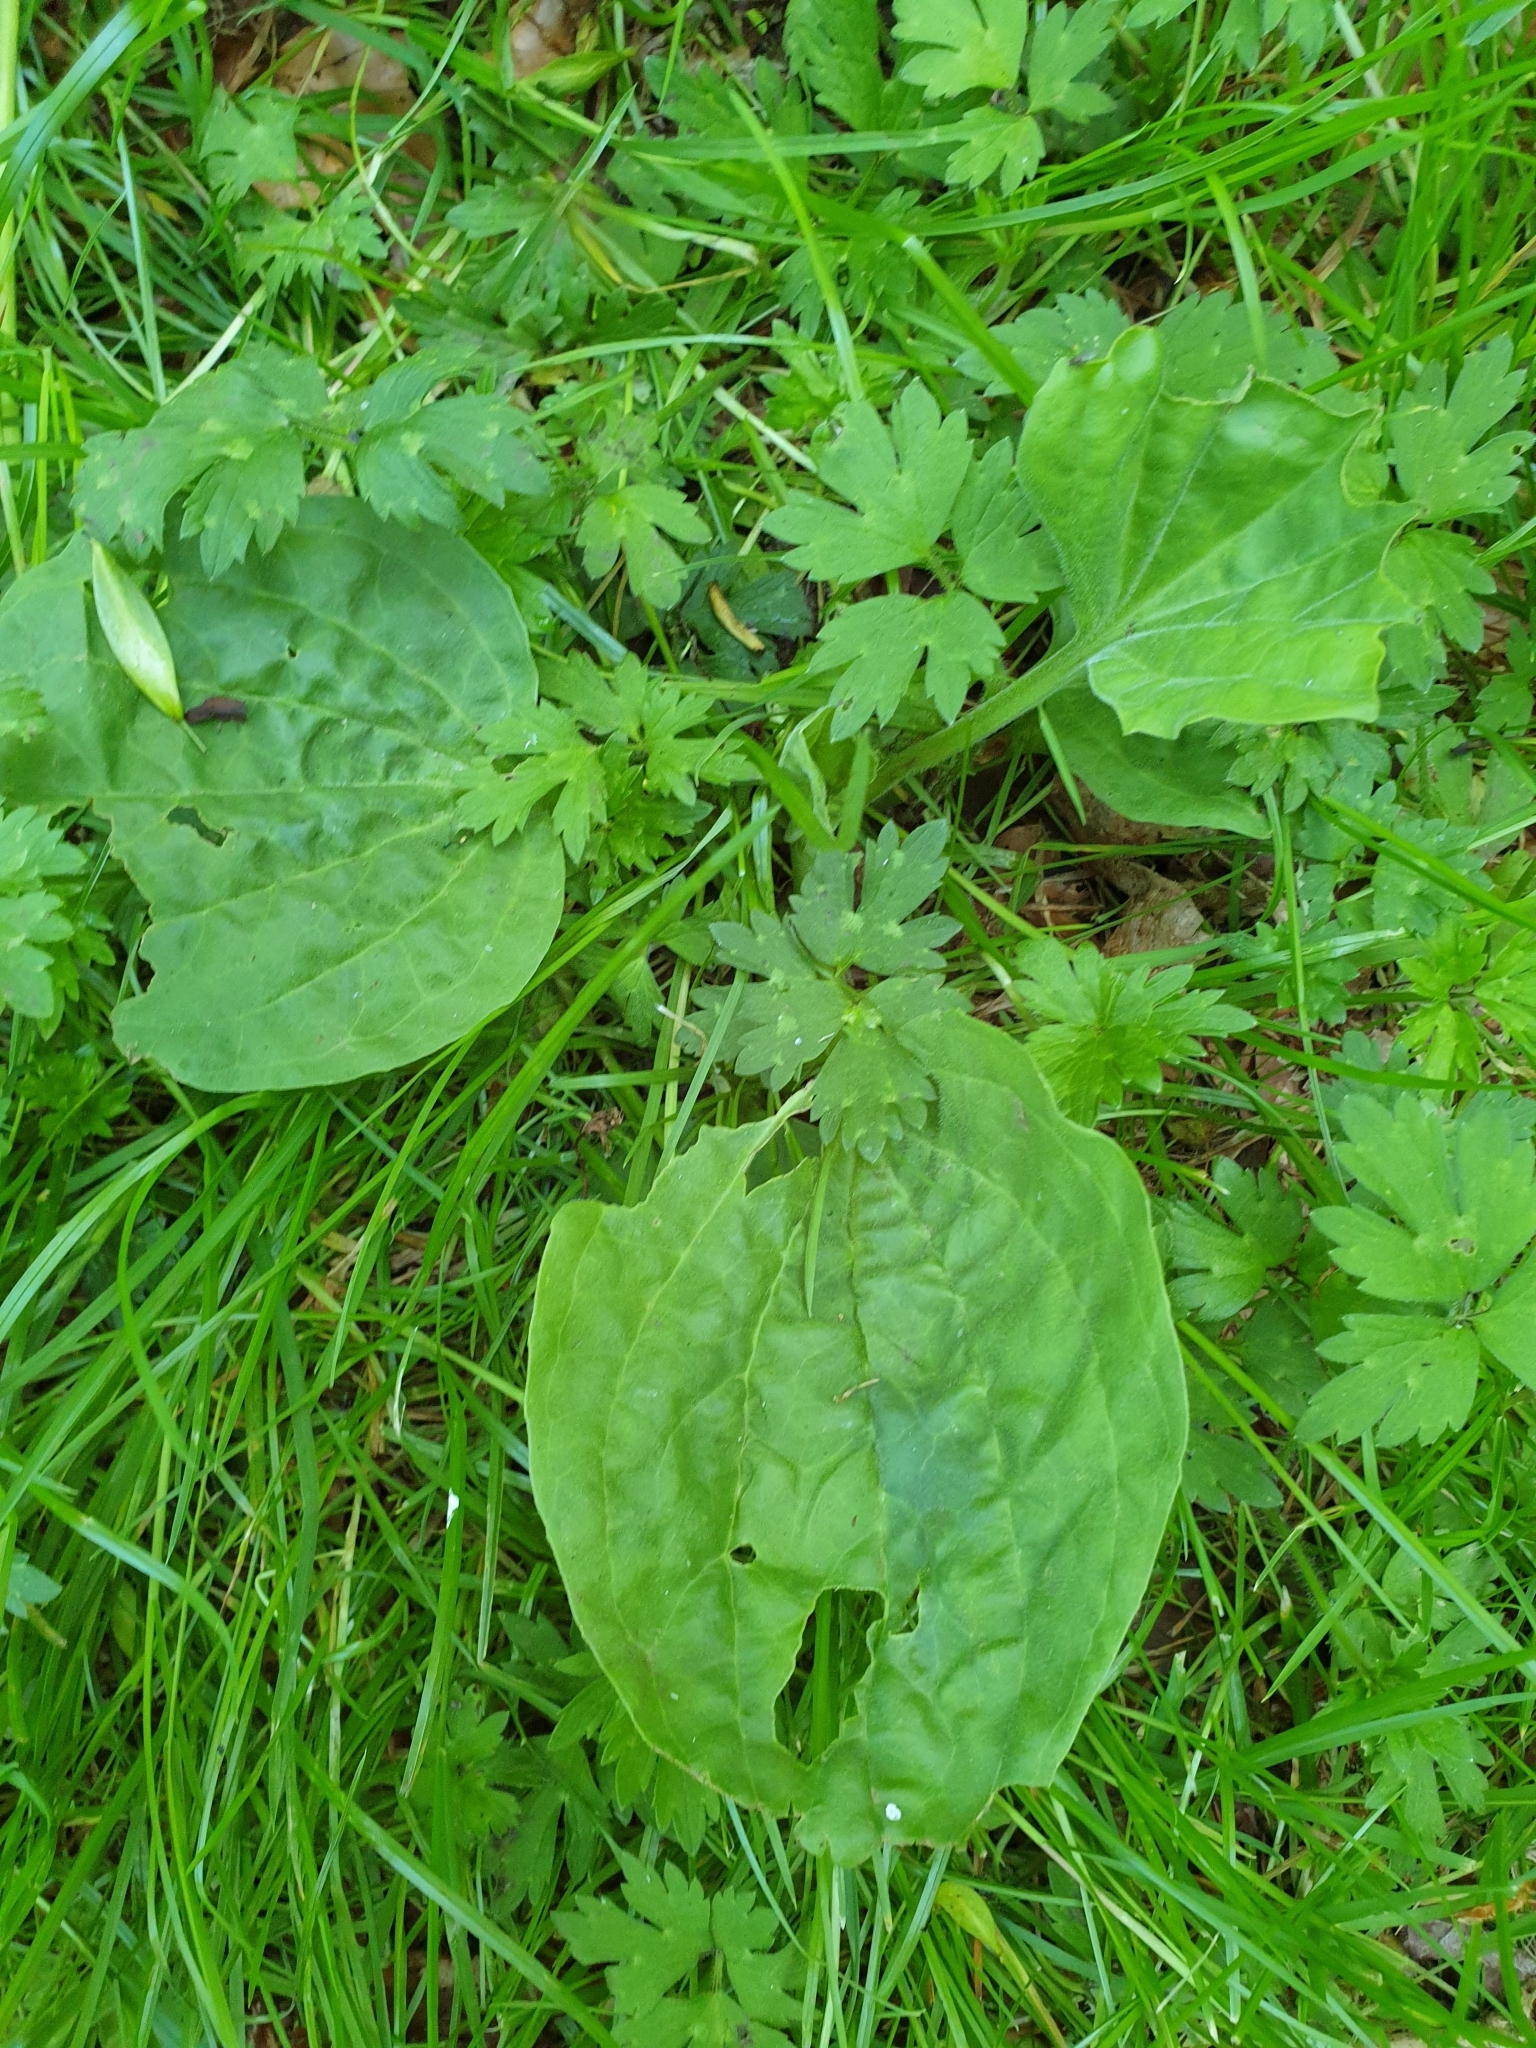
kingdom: Plantae
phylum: Tracheophyta
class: Magnoliopsida
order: Lamiales
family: Plantaginaceae
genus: Plantago
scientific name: Plantago major
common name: Common plantain
